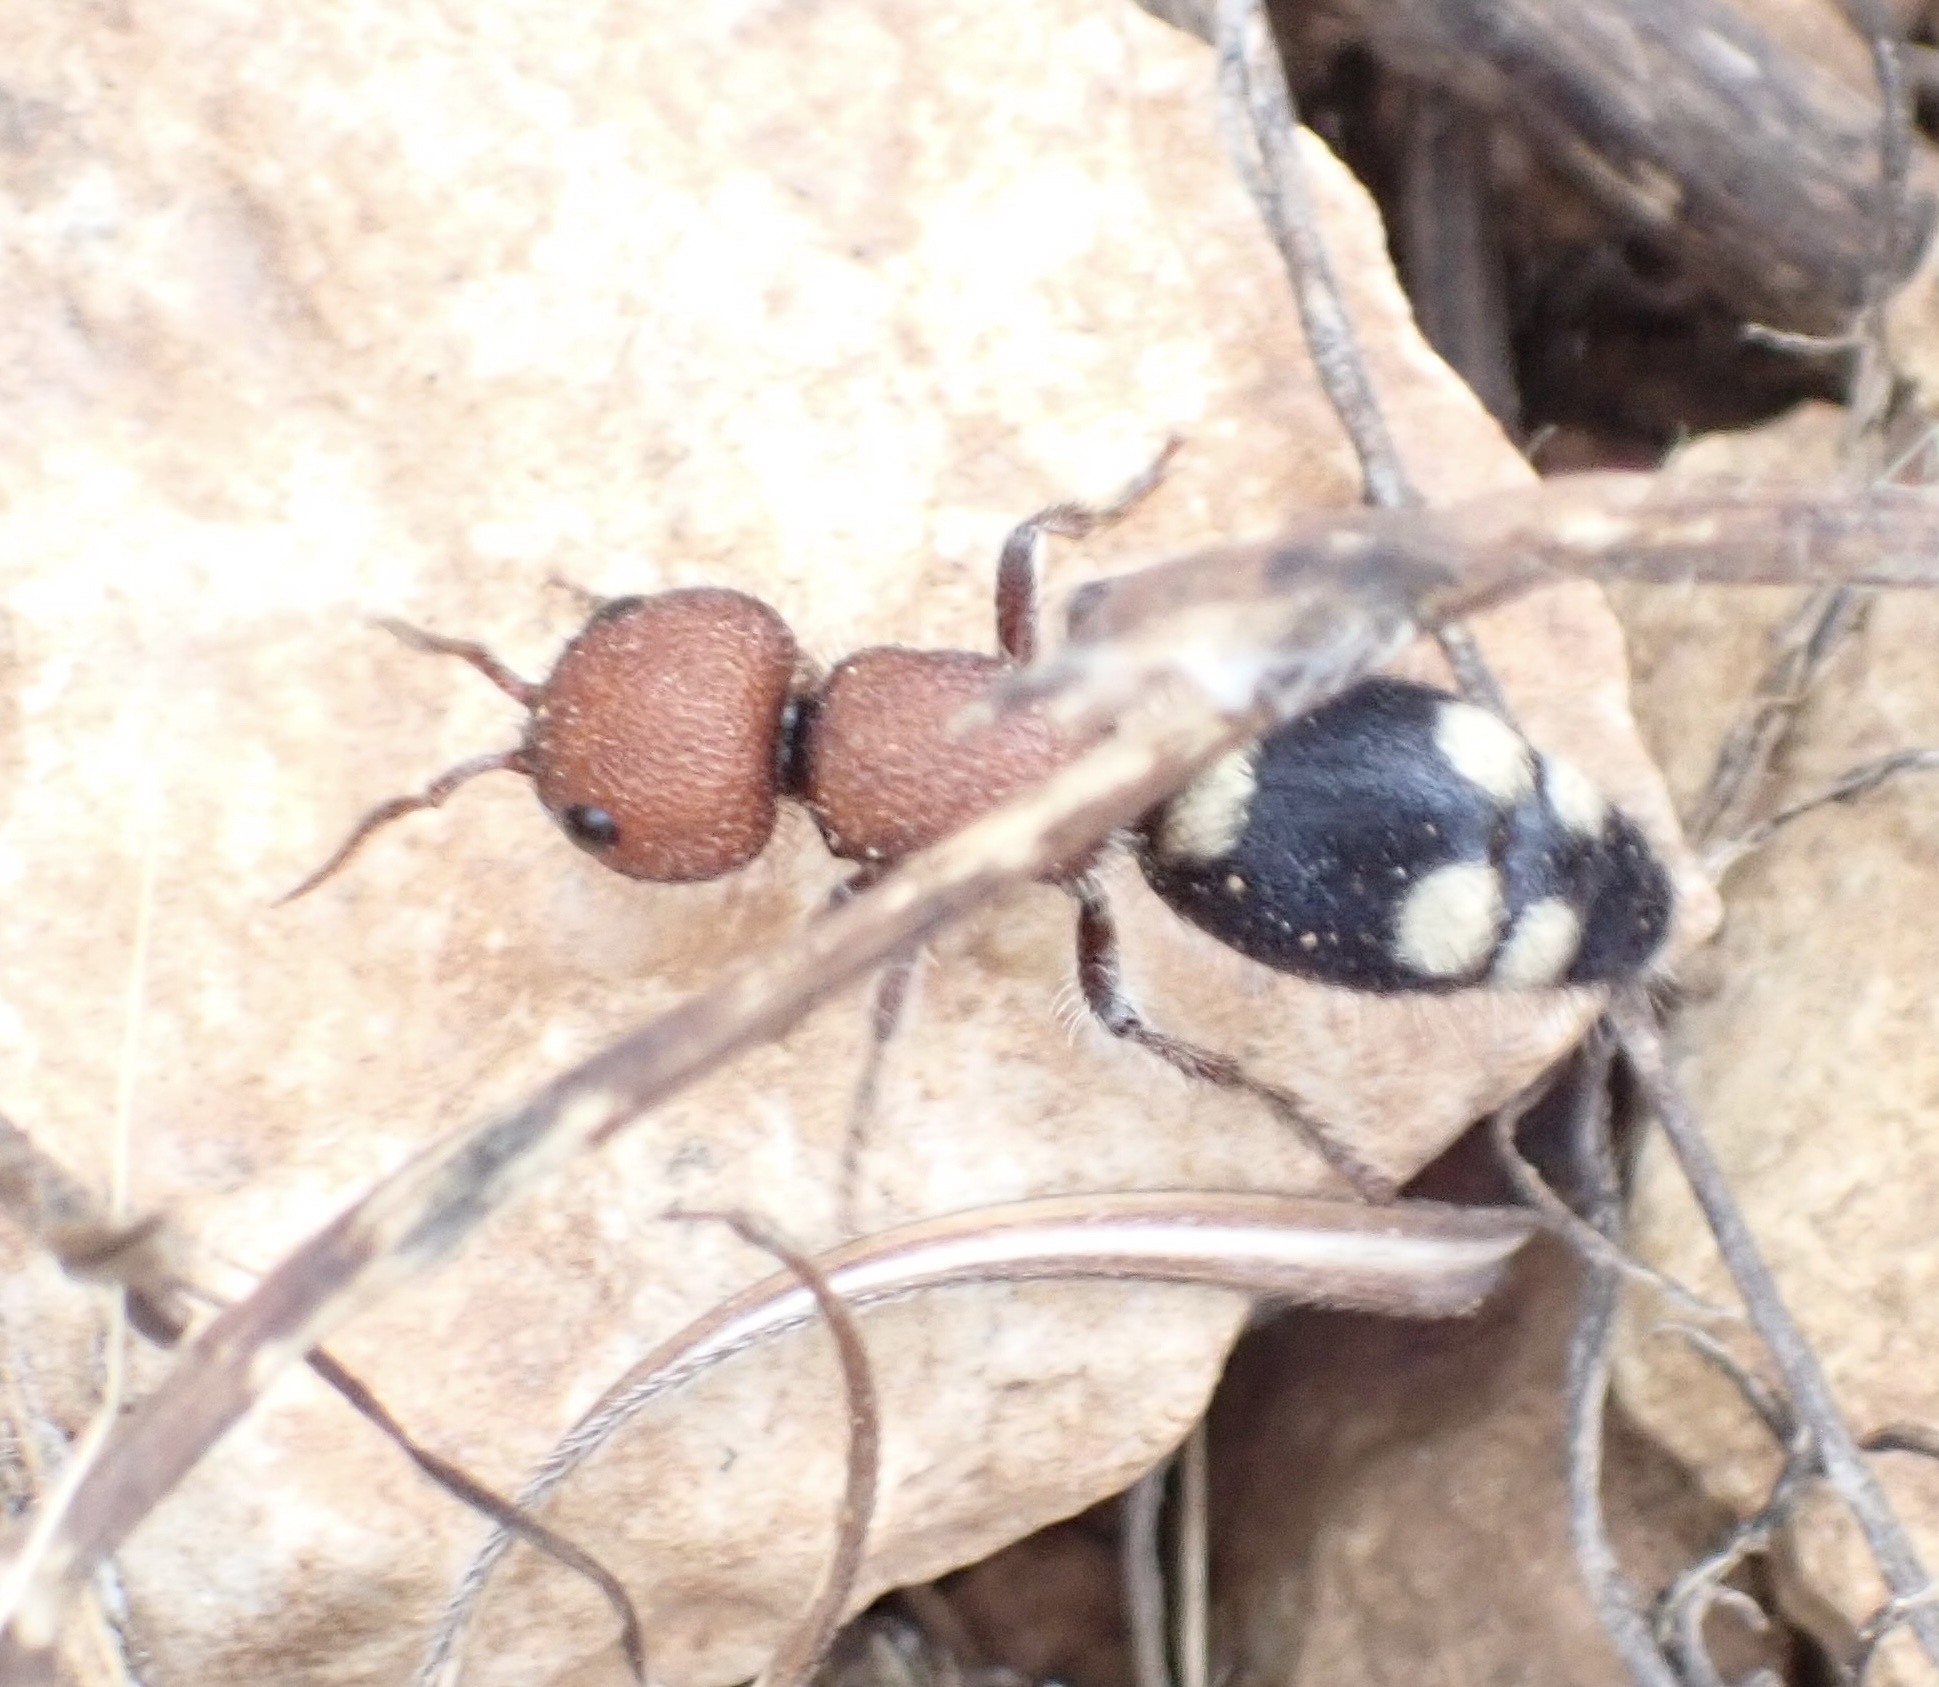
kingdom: Animalia
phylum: Arthropoda
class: Insecta
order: Hymenoptera
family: Mutillidae
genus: Mutilla
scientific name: Mutilla quinquemaculata
